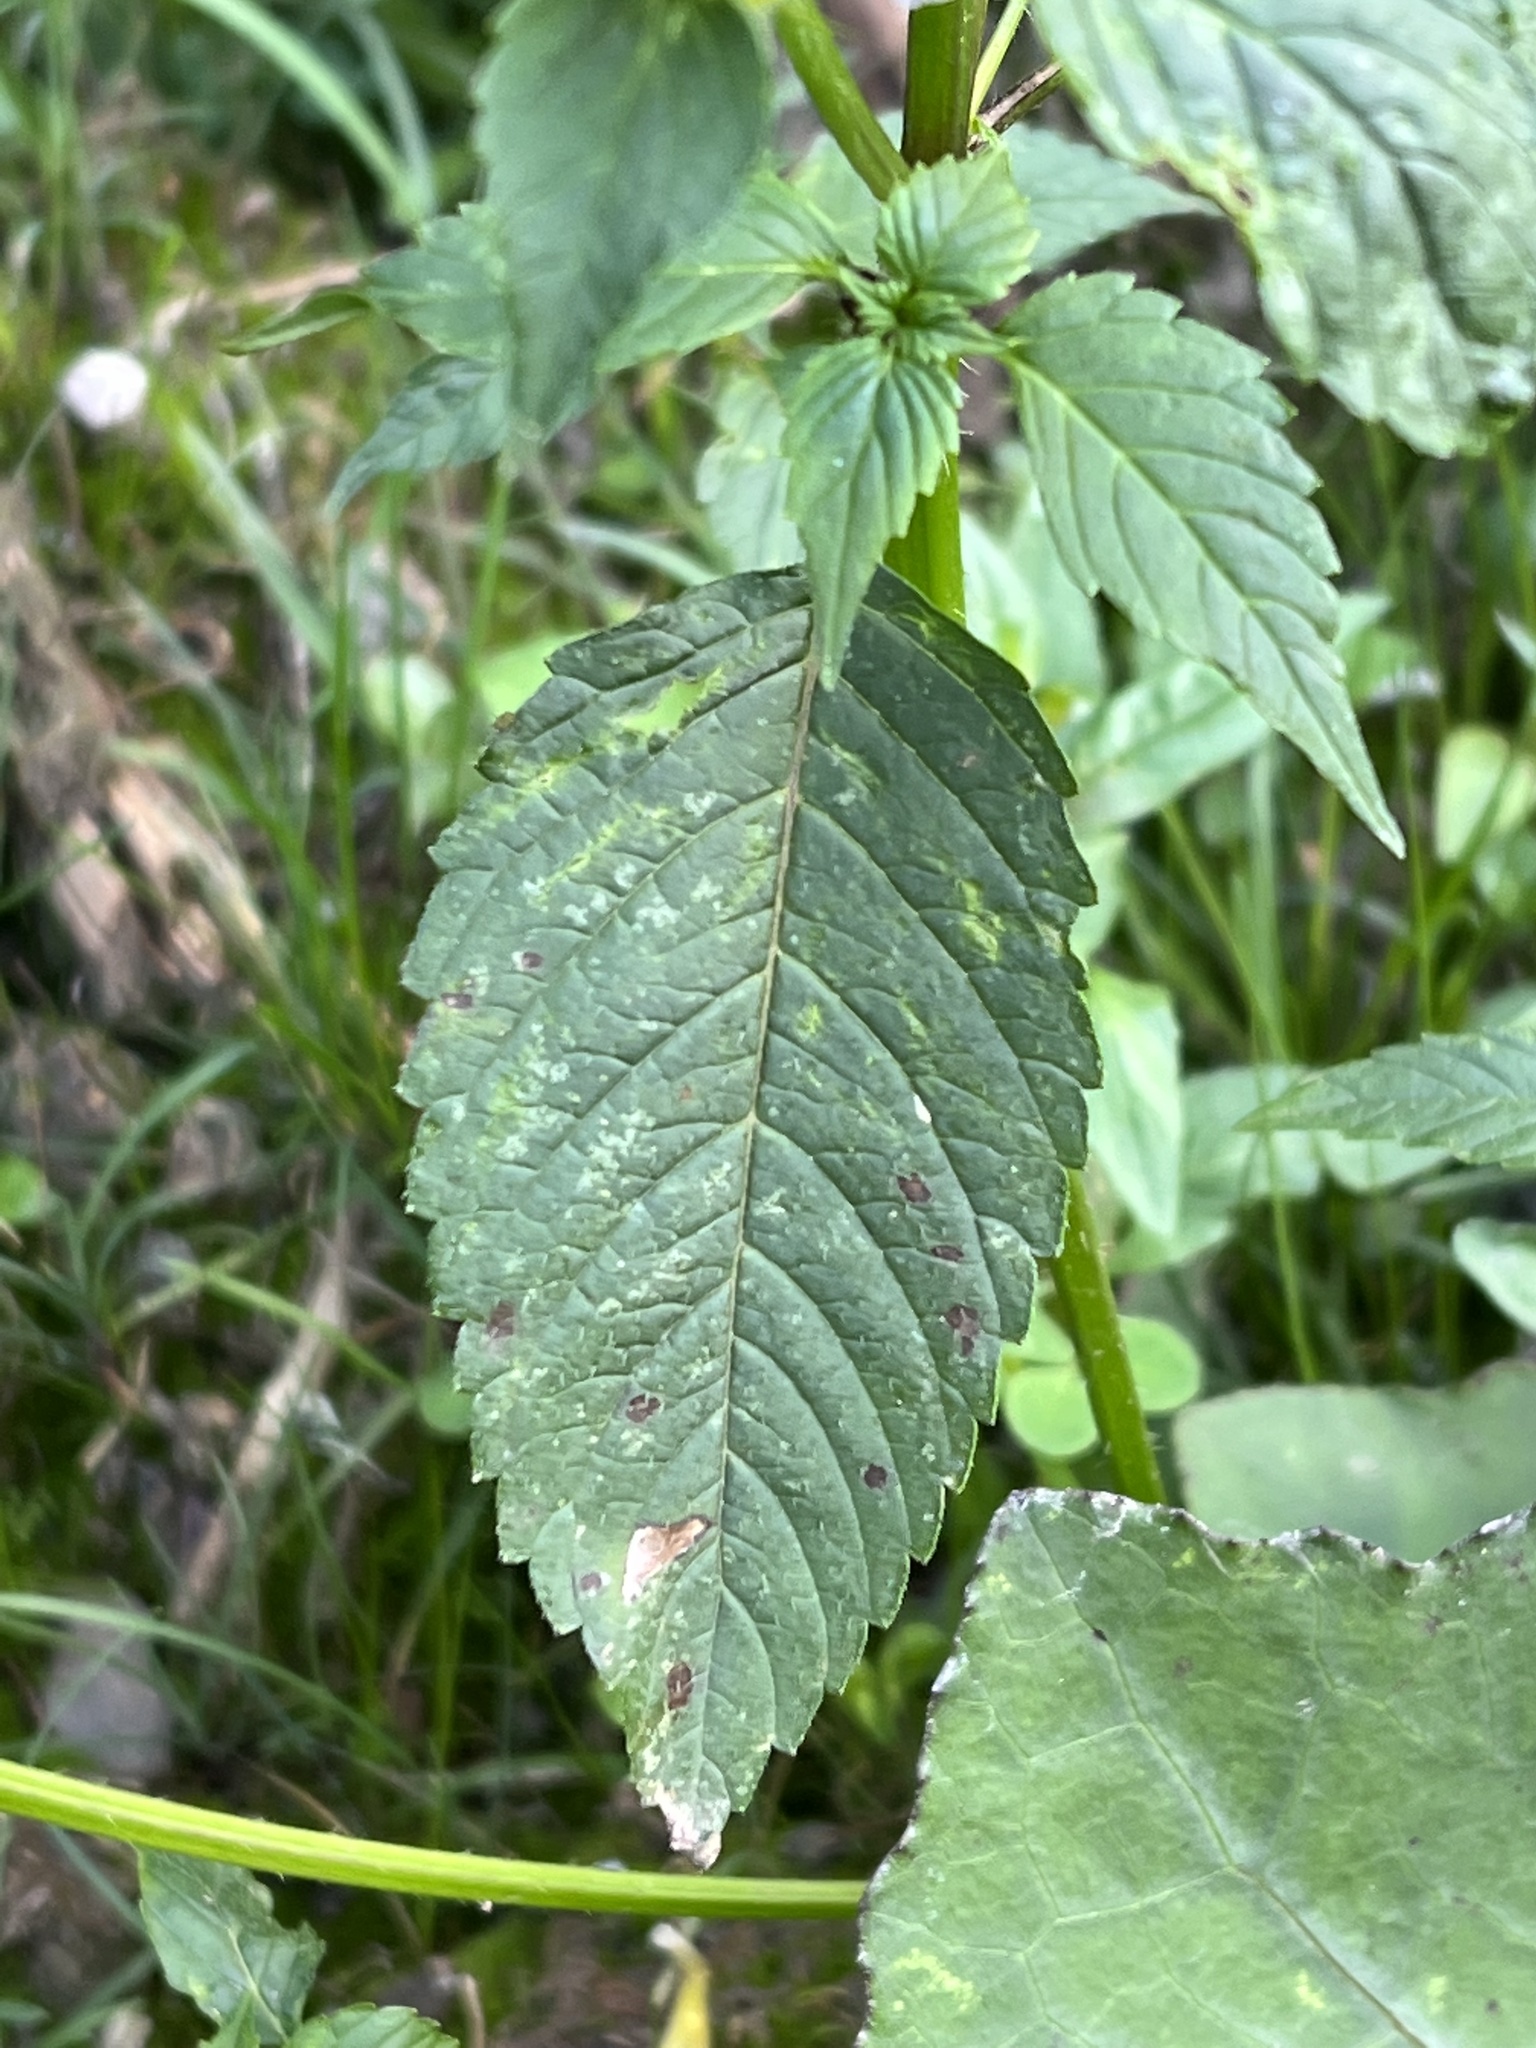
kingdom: Plantae
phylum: Tracheophyta
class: Magnoliopsida
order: Lamiales
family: Lamiaceae
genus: Galeopsis
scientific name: Galeopsis speciosa
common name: Large-flowered hemp-nettle
